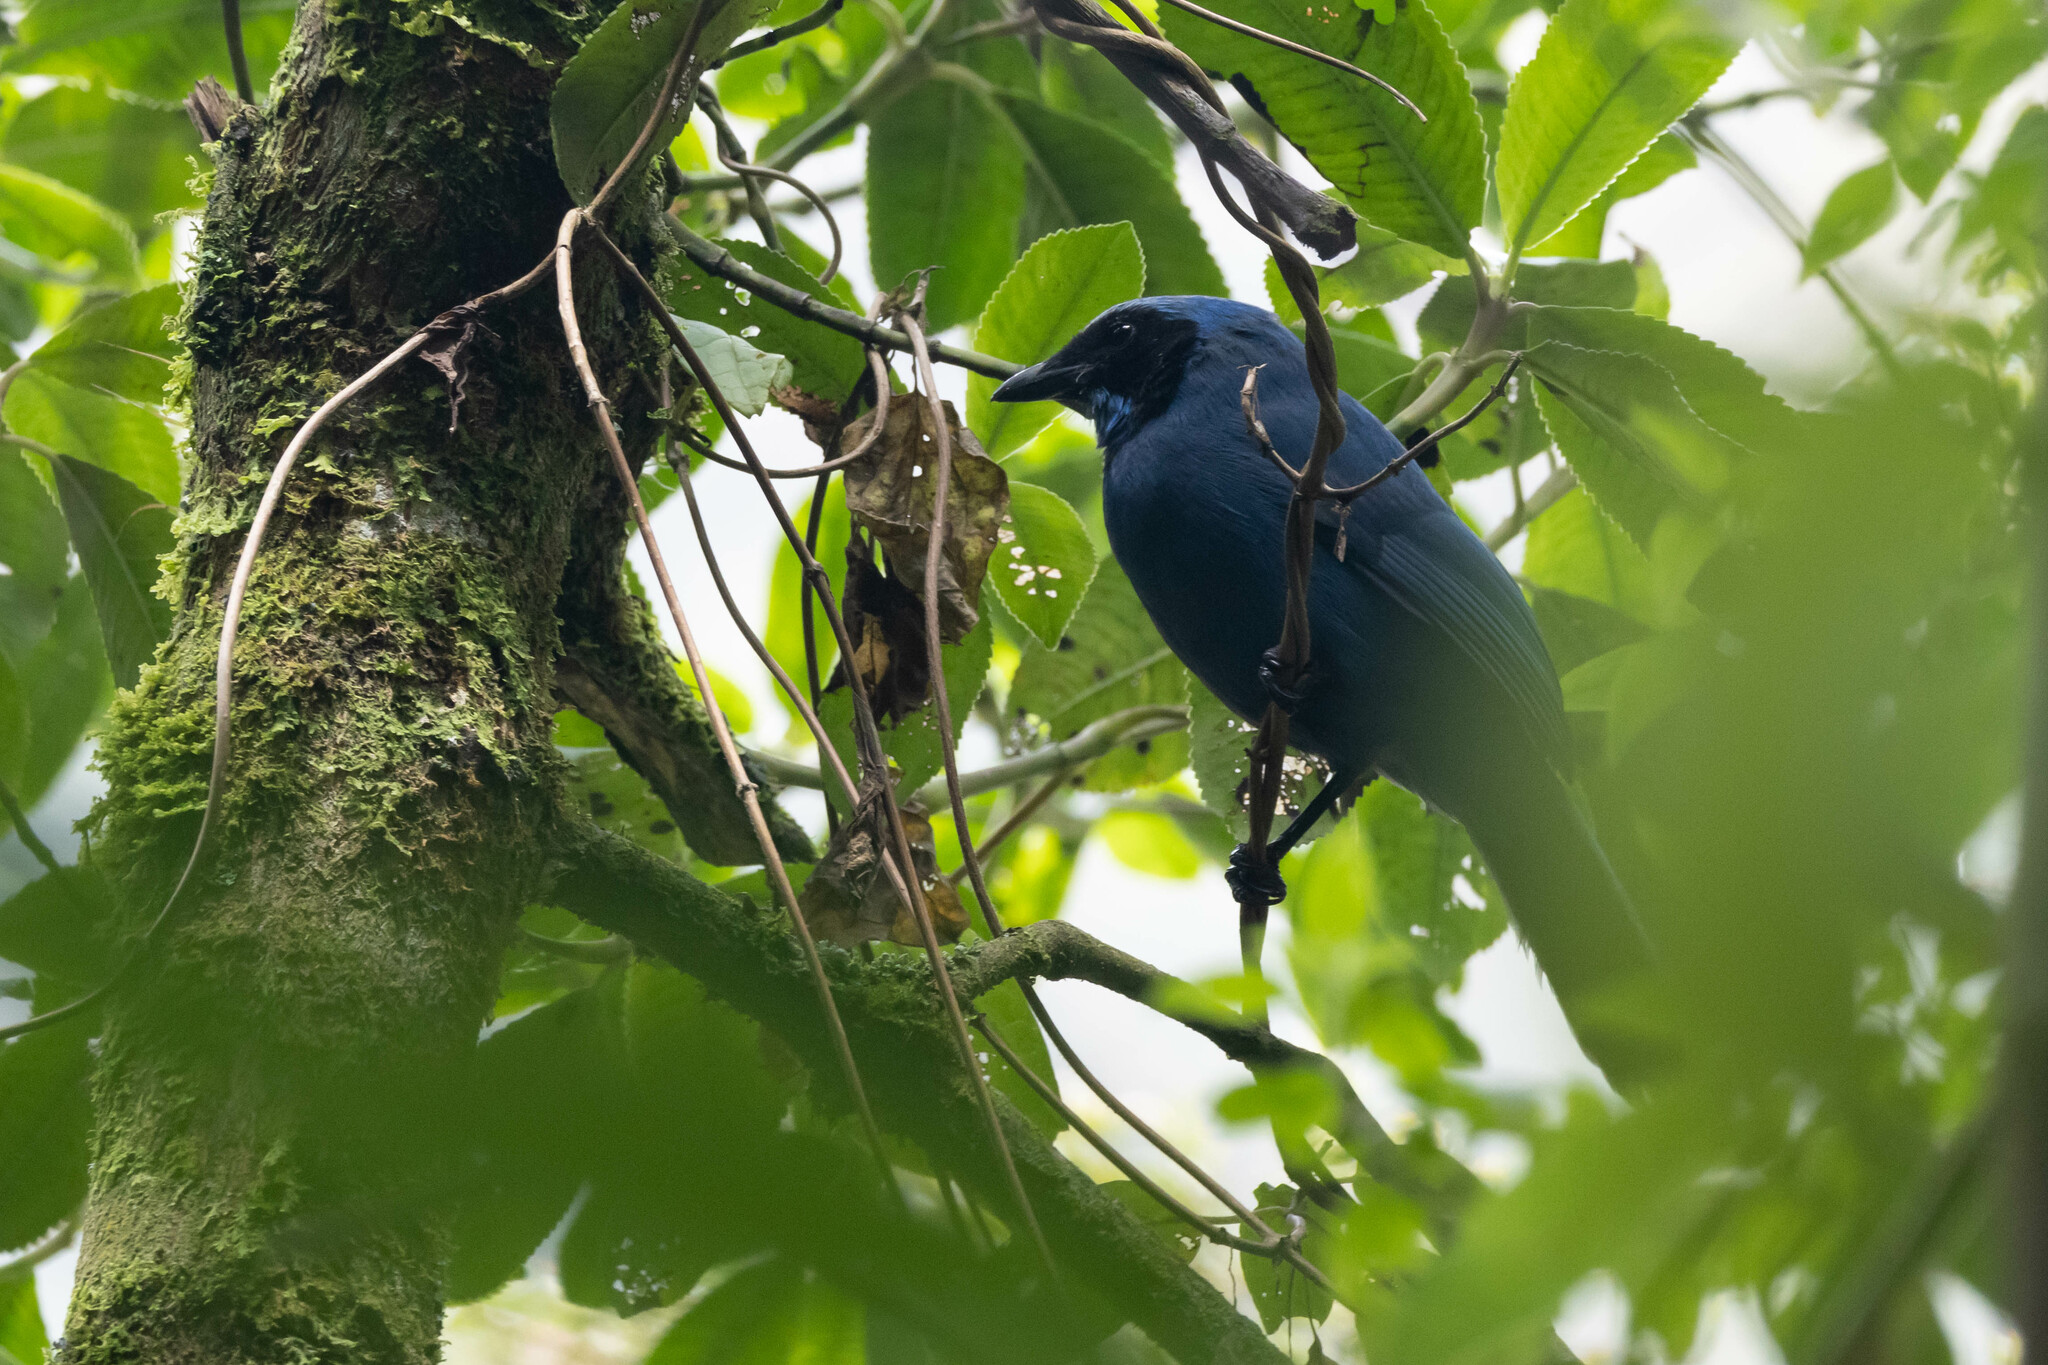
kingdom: Animalia
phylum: Chordata
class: Aves
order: Passeriformes
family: Corvidae
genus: Cyanolyca
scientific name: Cyanolyca turcosa
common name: Turquoise jay
